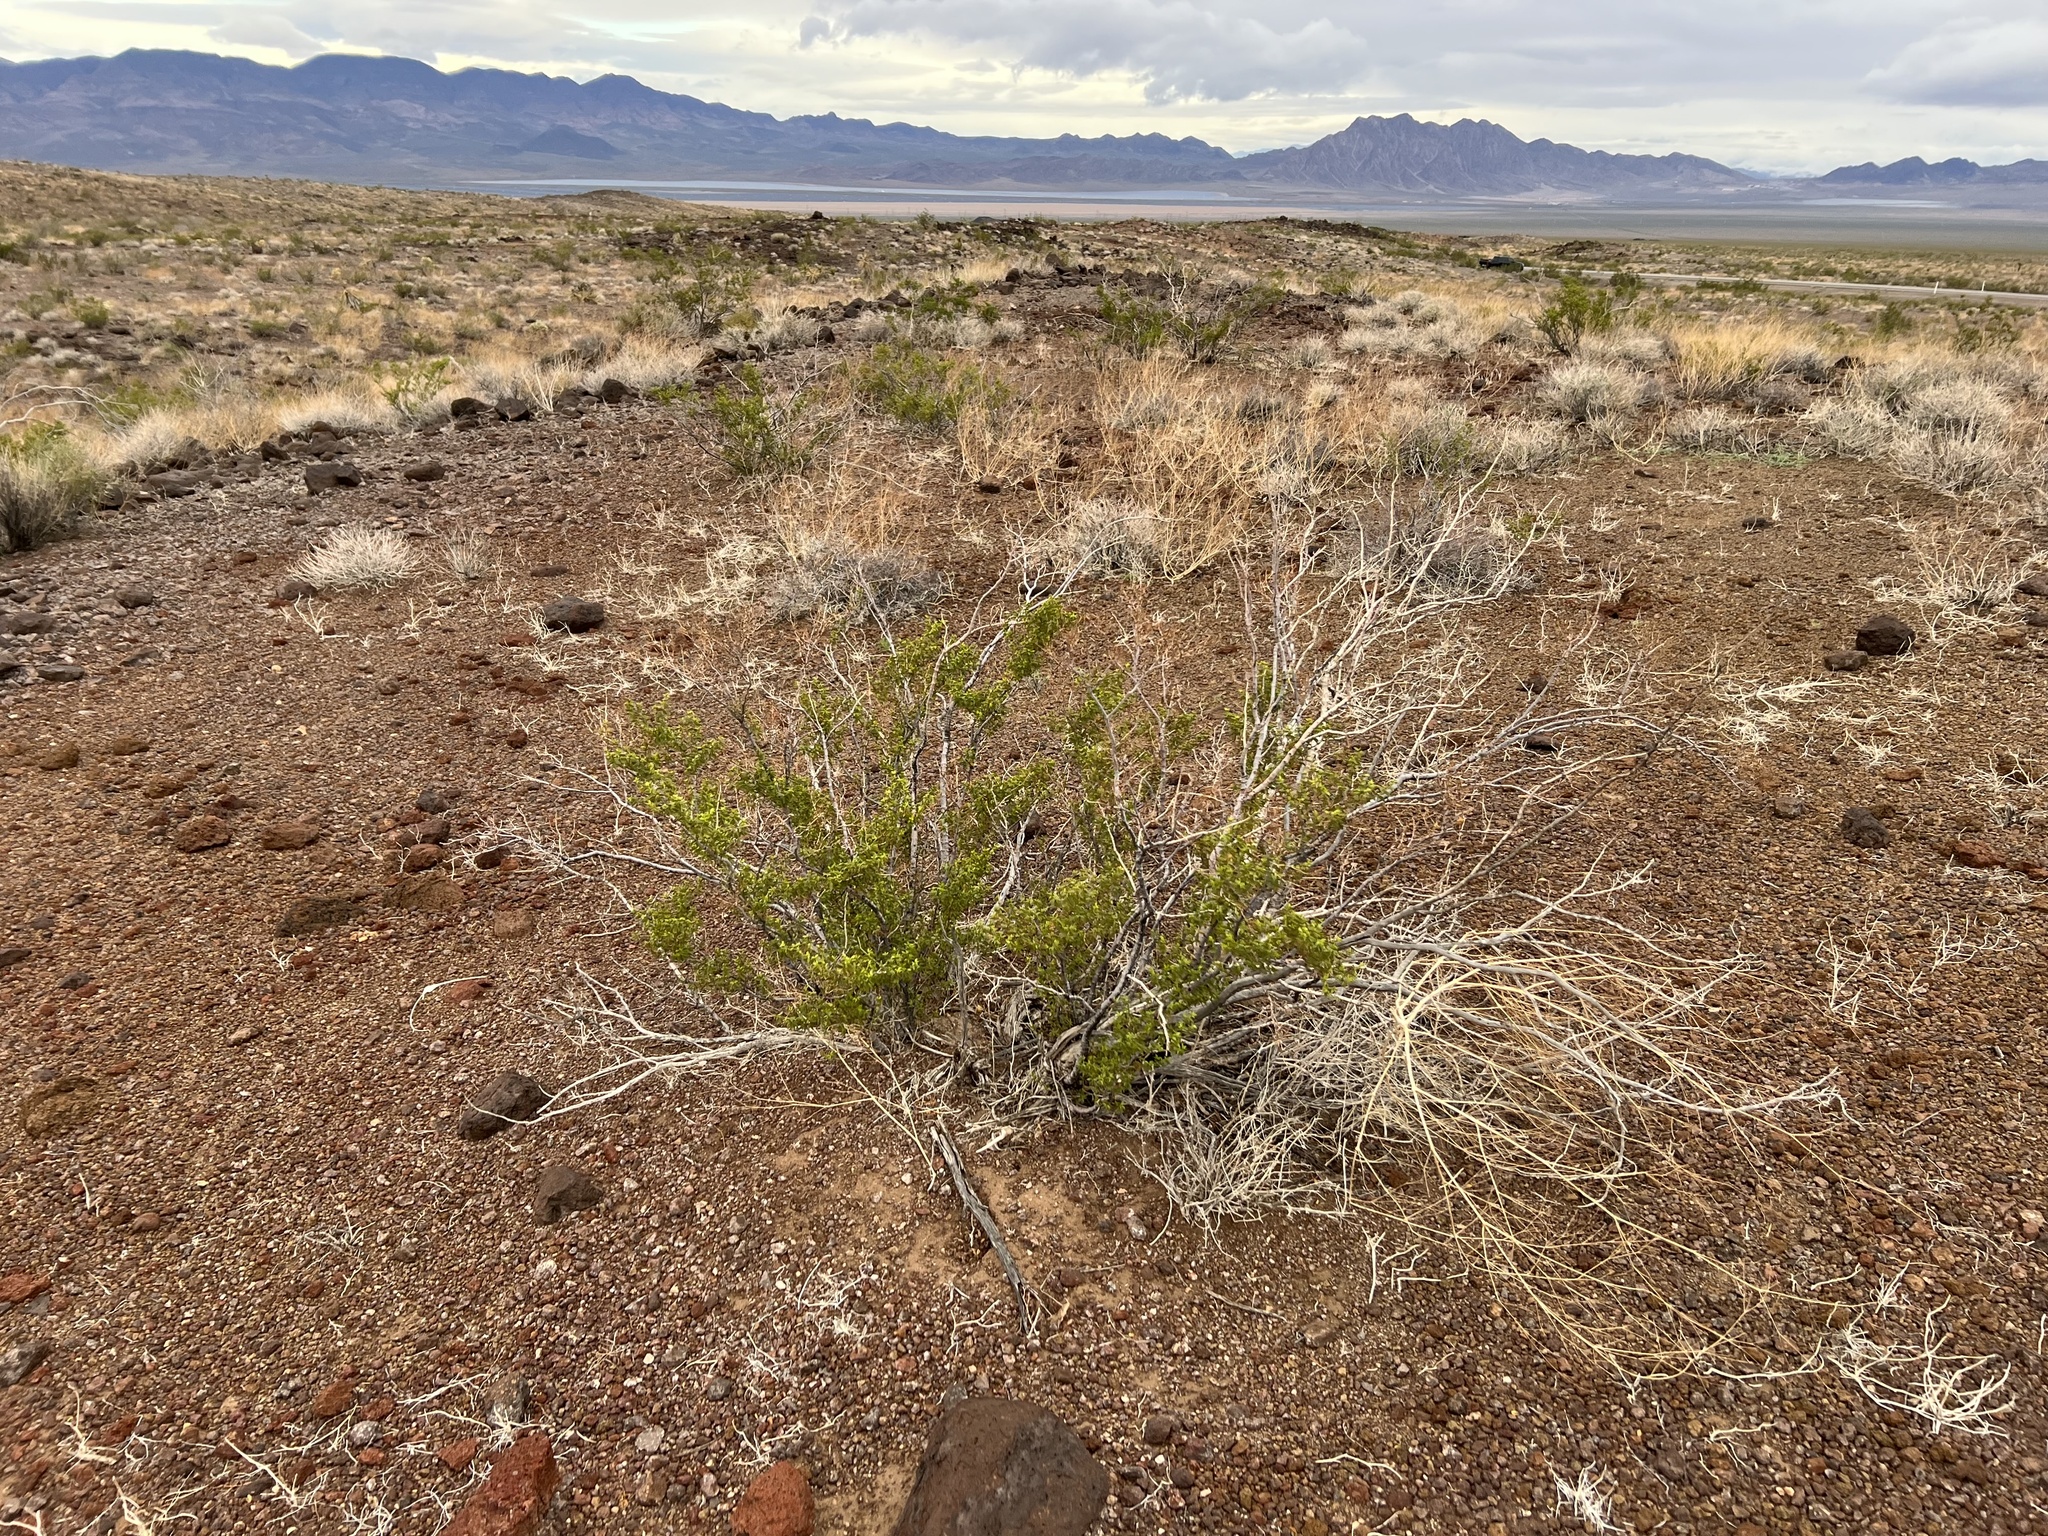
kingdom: Plantae
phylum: Tracheophyta
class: Magnoliopsida
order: Zygophyllales
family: Zygophyllaceae
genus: Larrea
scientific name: Larrea tridentata
